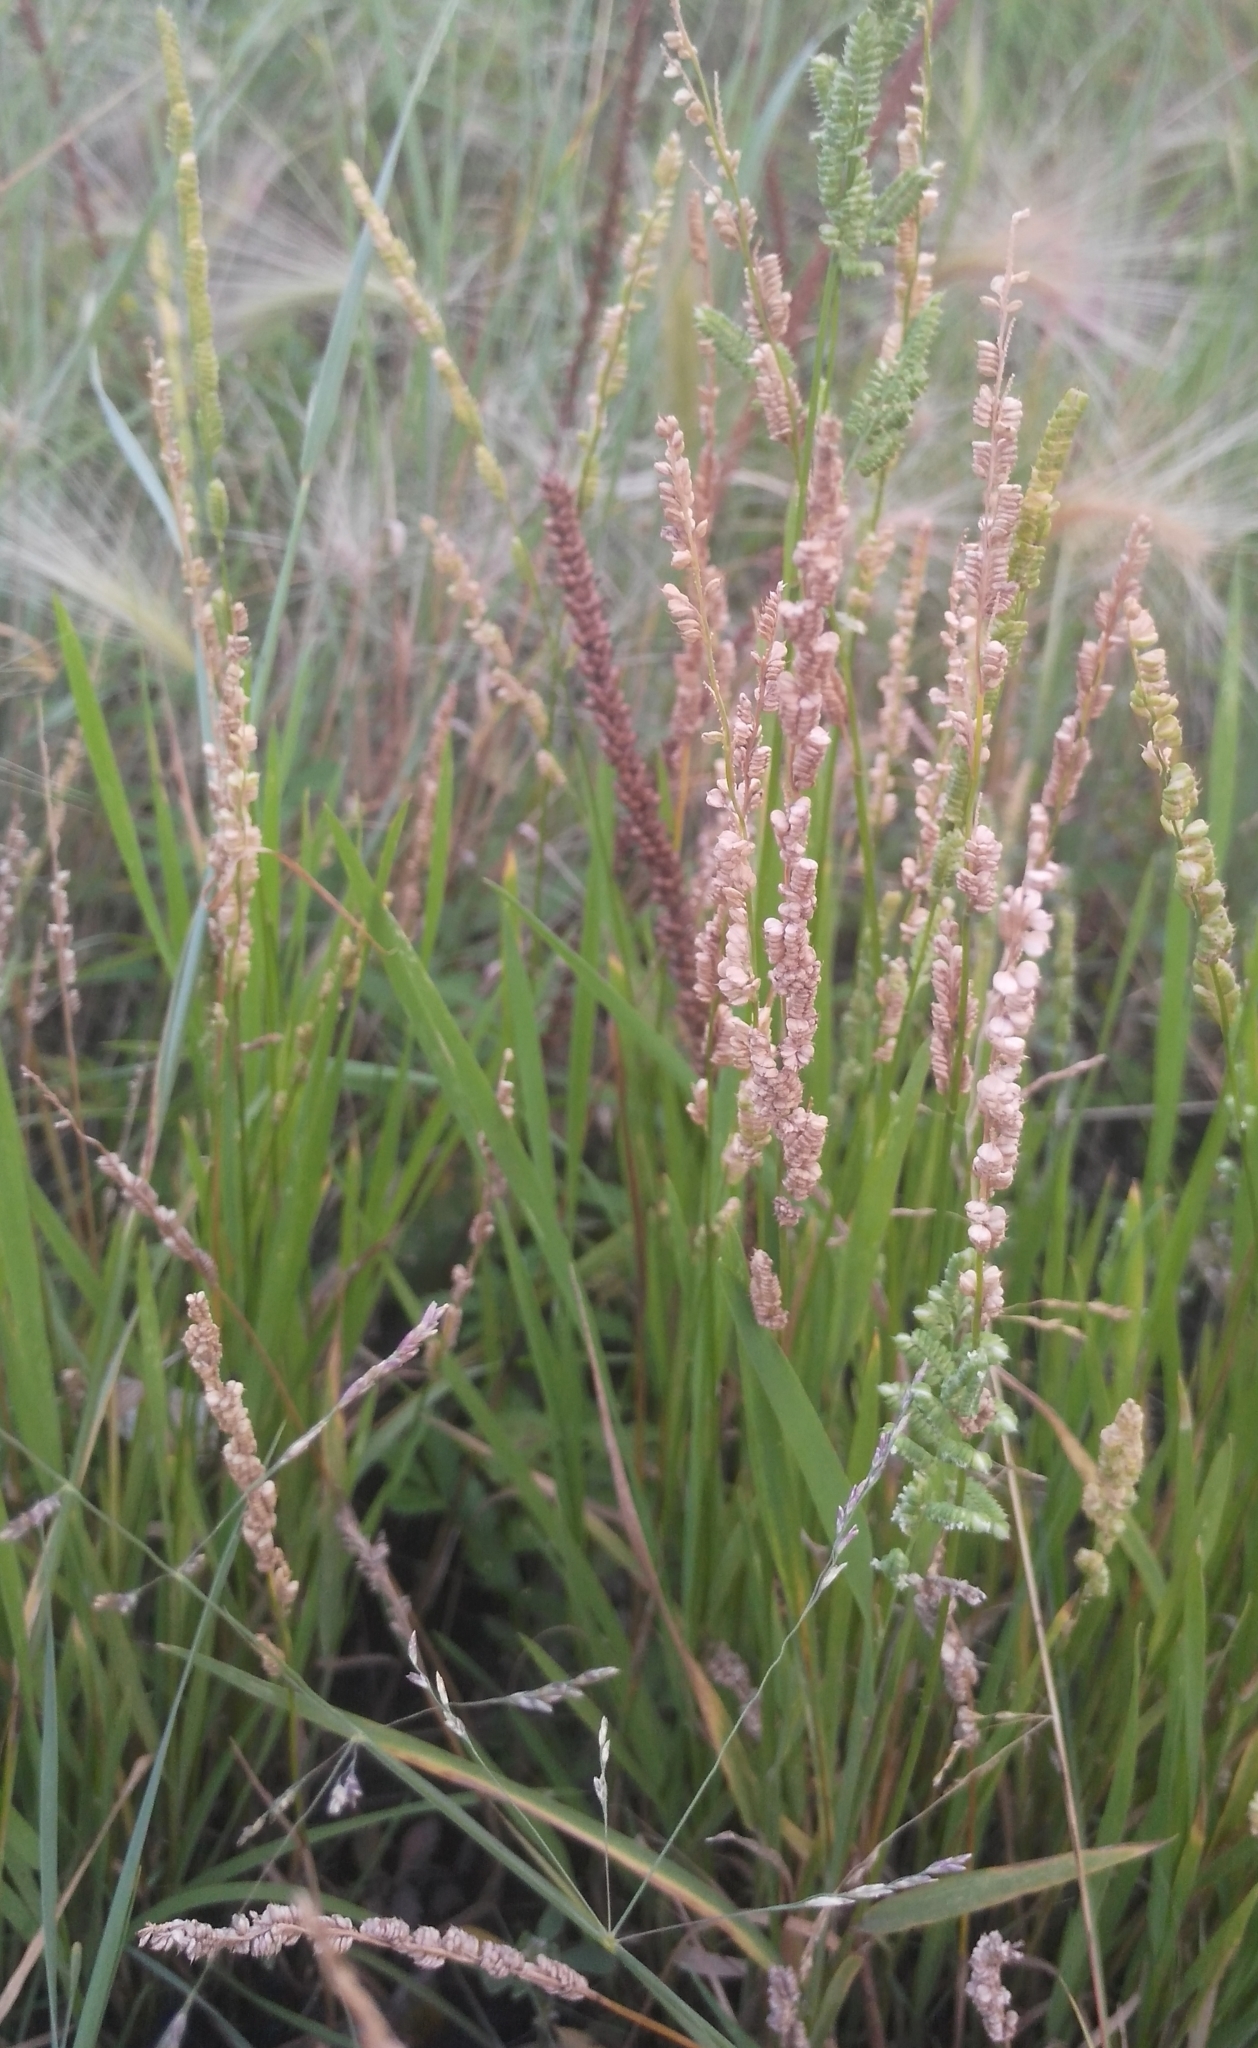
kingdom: Plantae
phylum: Tracheophyta
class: Liliopsida
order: Poales
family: Poaceae
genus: Beckmannia
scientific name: Beckmannia syzigachne
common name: American slough-grass
